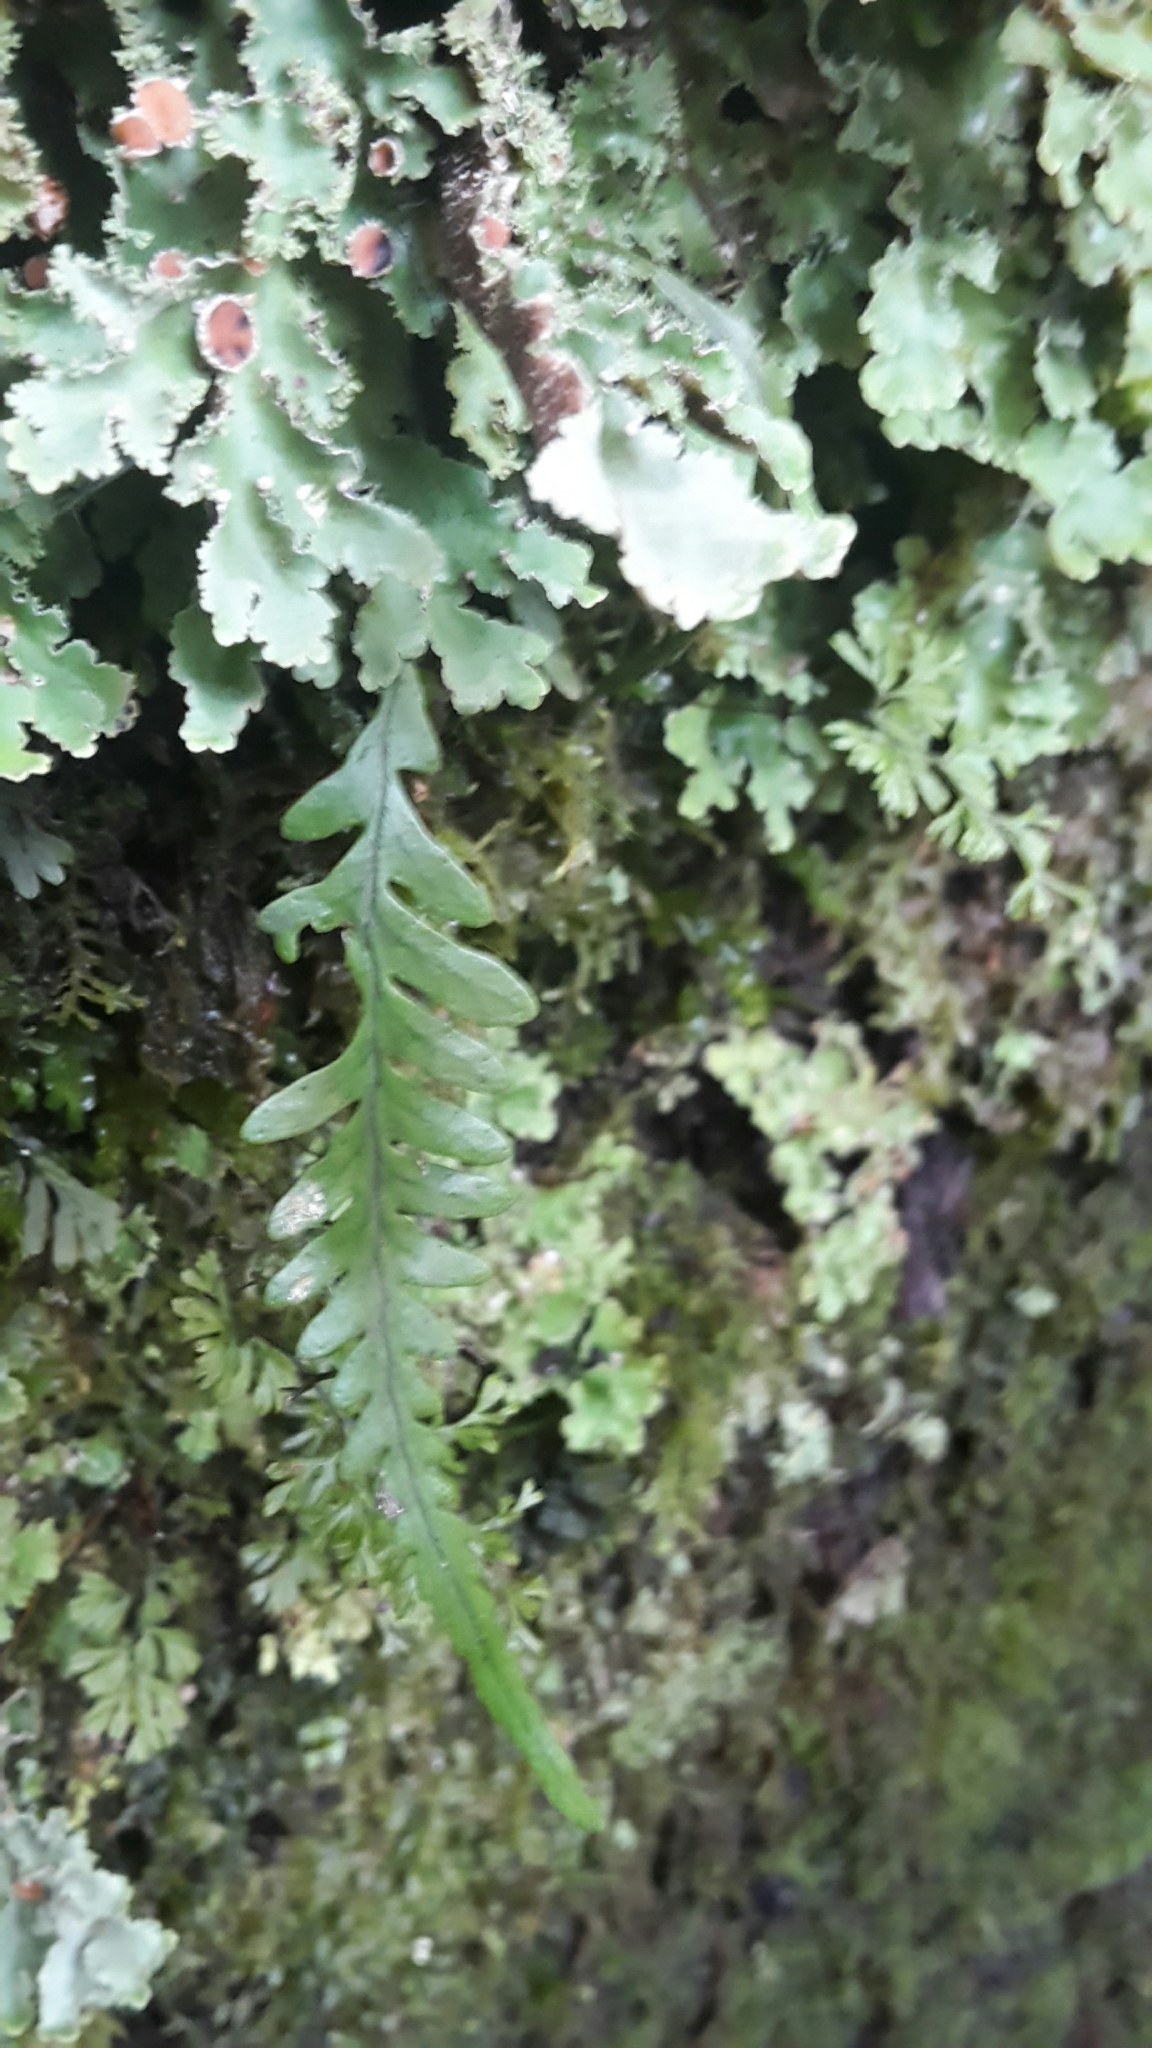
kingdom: Plantae
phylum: Tracheophyta
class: Polypodiopsida
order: Polypodiales
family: Polypodiaceae
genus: Notogrammitis
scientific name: Notogrammitis heterophylla
